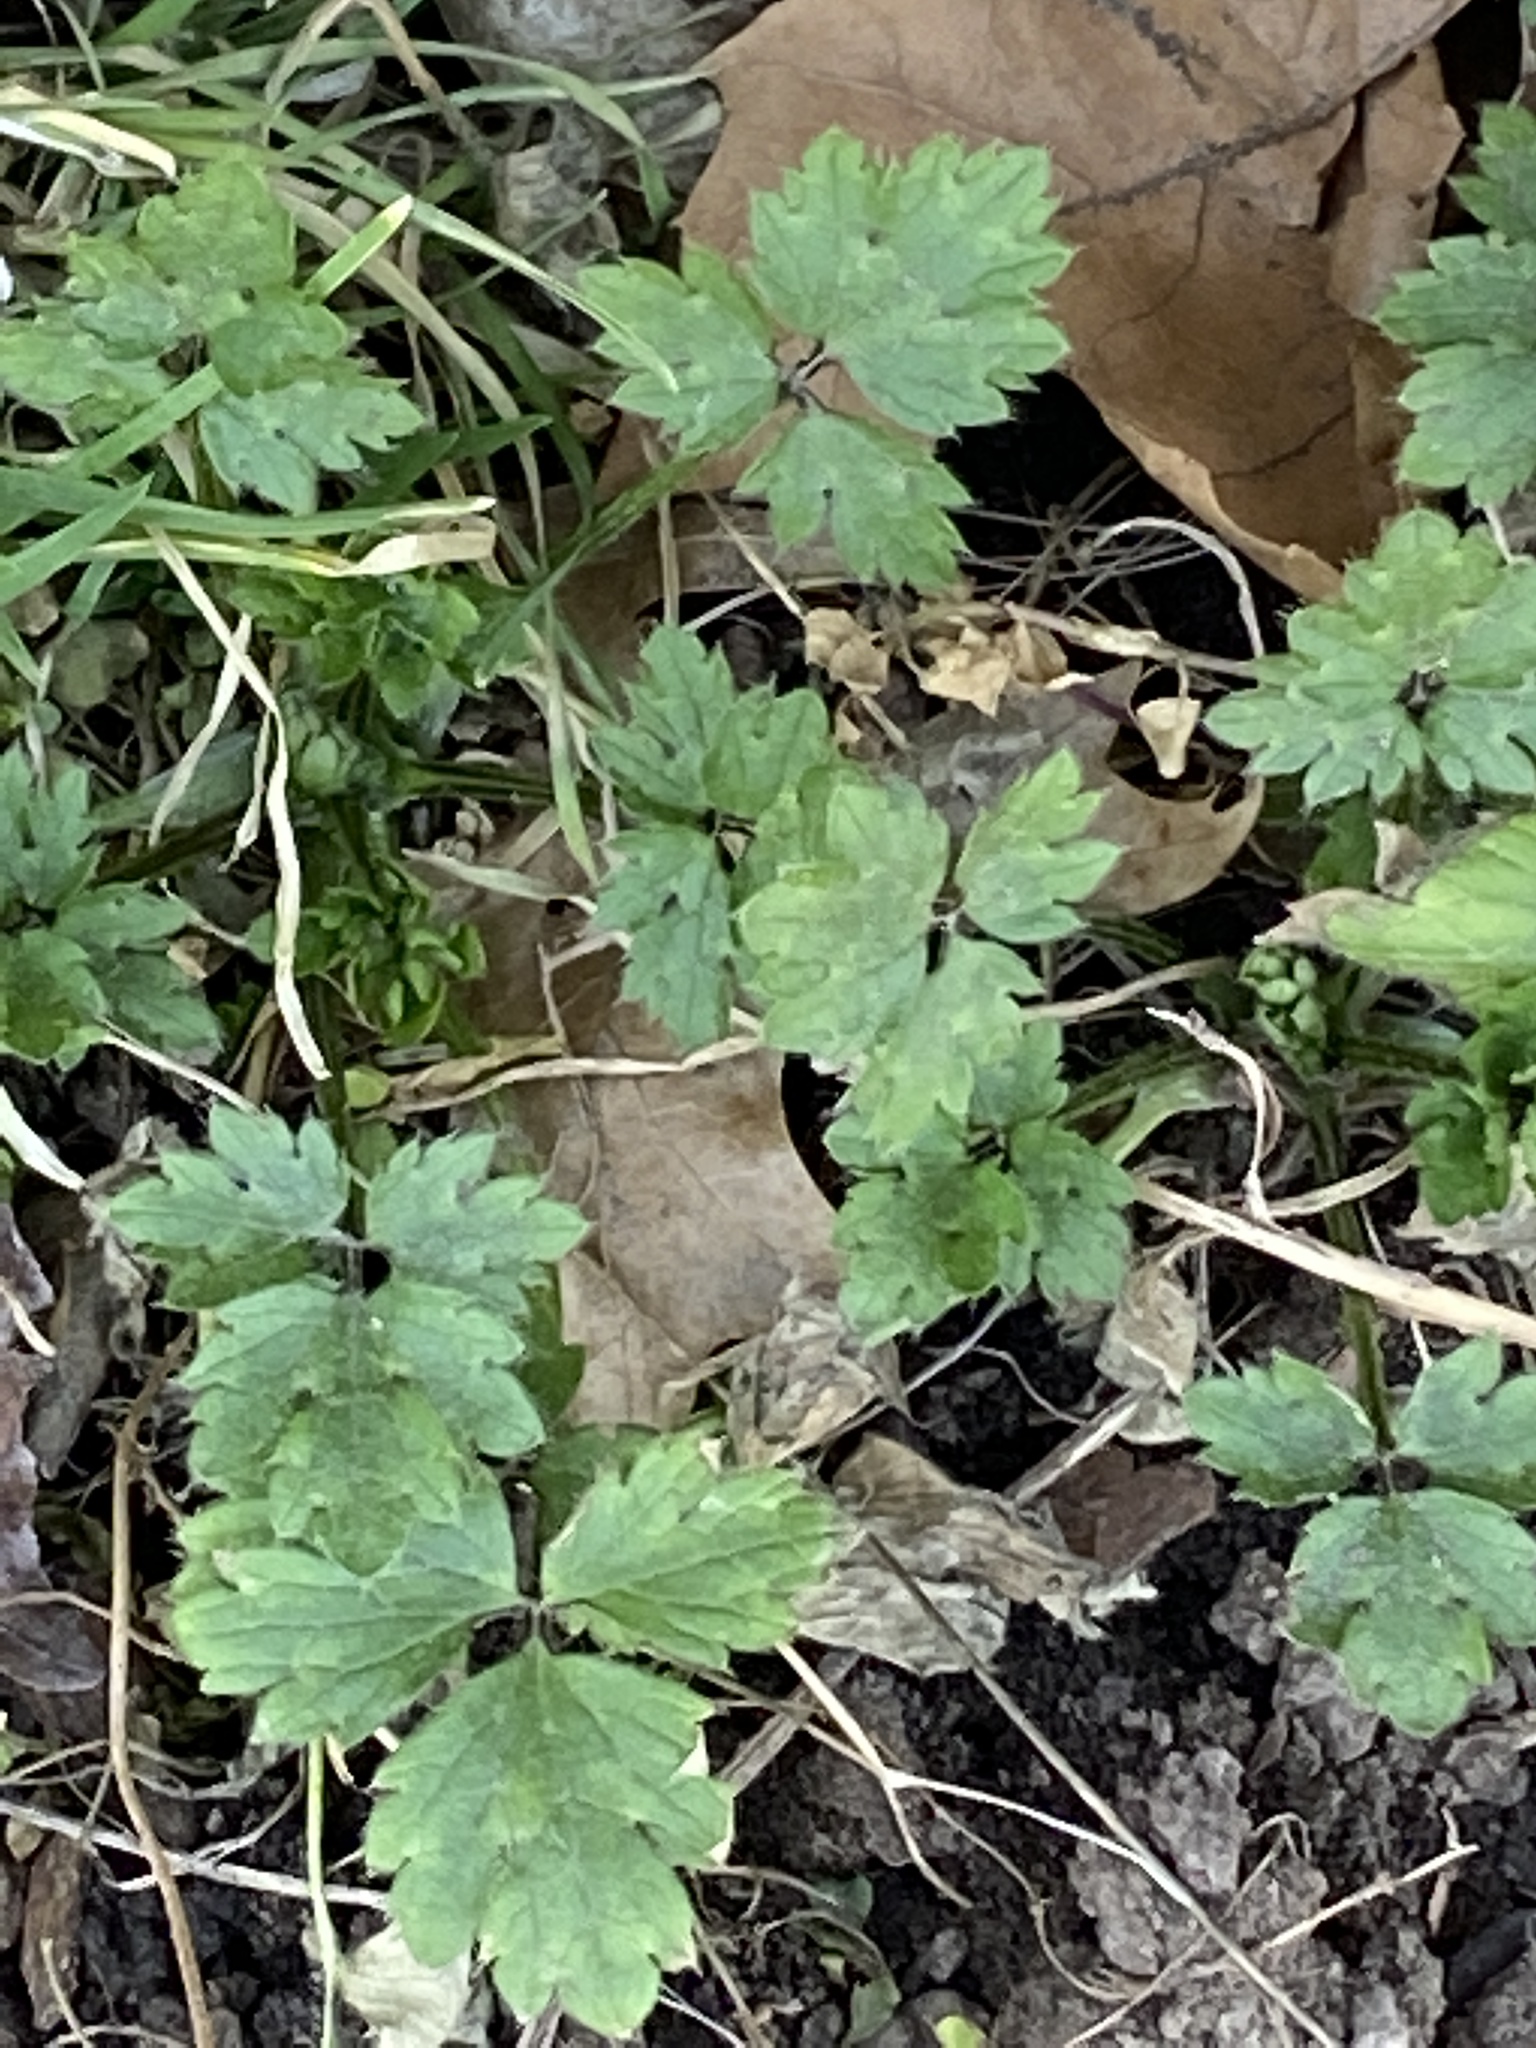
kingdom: Plantae
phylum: Tracheophyta
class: Magnoliopsida
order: Ranunculales
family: Ranunculaceae
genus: Ranunculus
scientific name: Ranunculus repens
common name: Creeping buttercup
